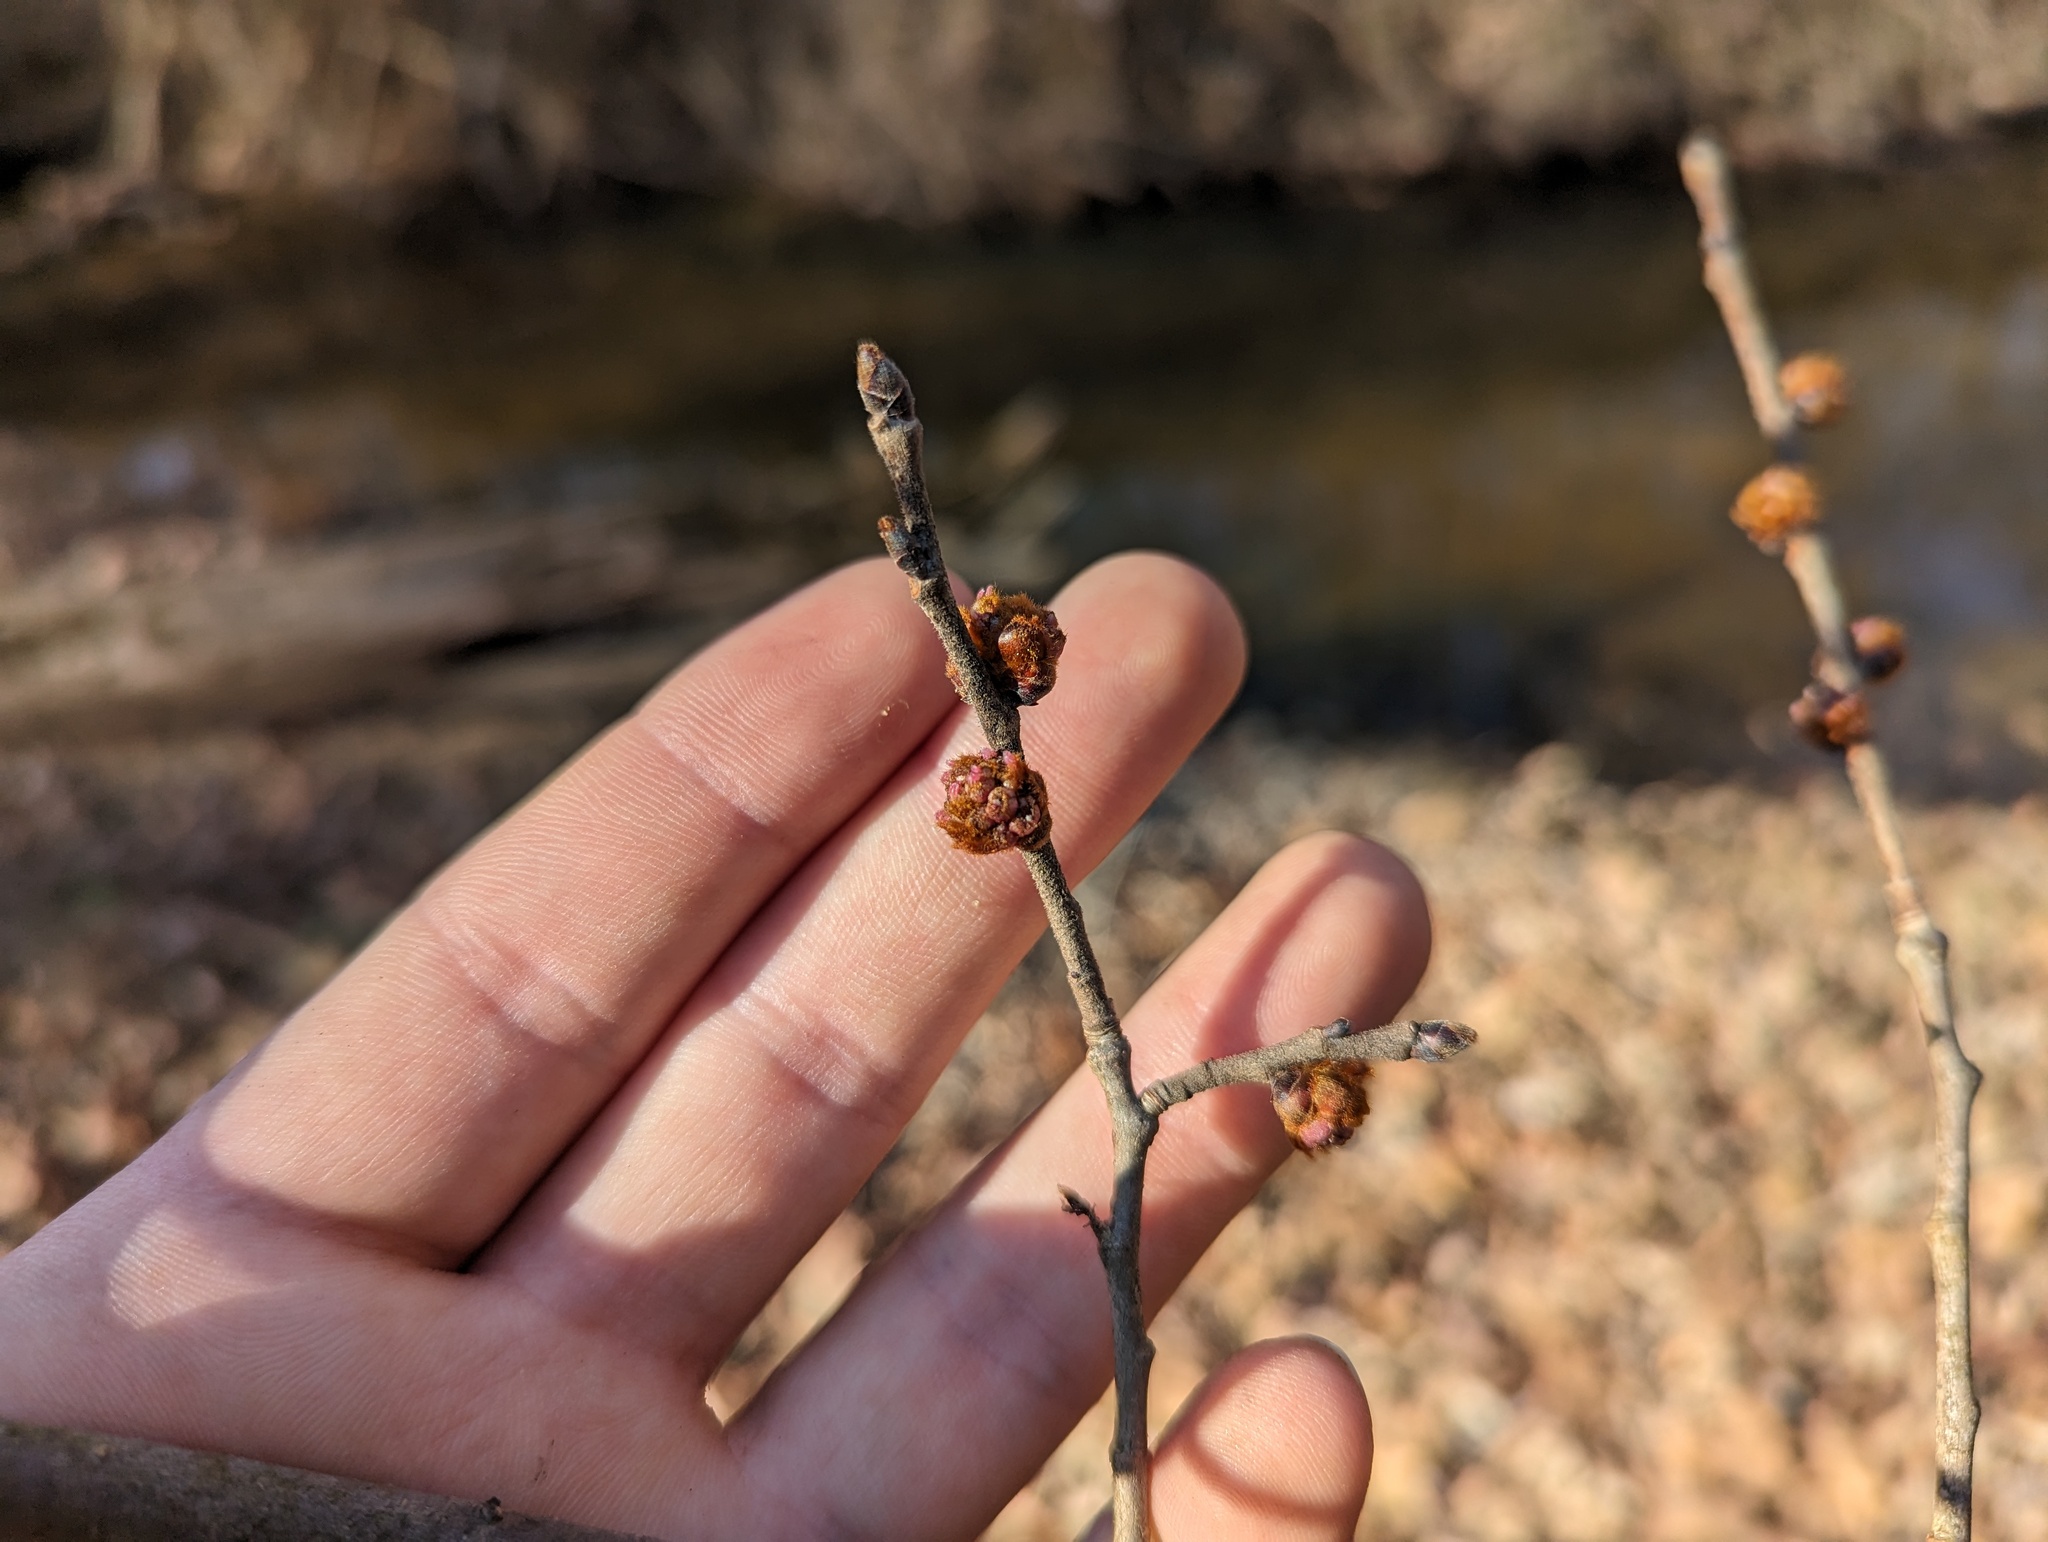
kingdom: Plantae
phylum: Tracheophyta
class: Magnoliopsida
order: Rosales
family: Ulmaceae
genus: Ulmus
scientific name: Ulmus rubra
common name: Slippery elm
